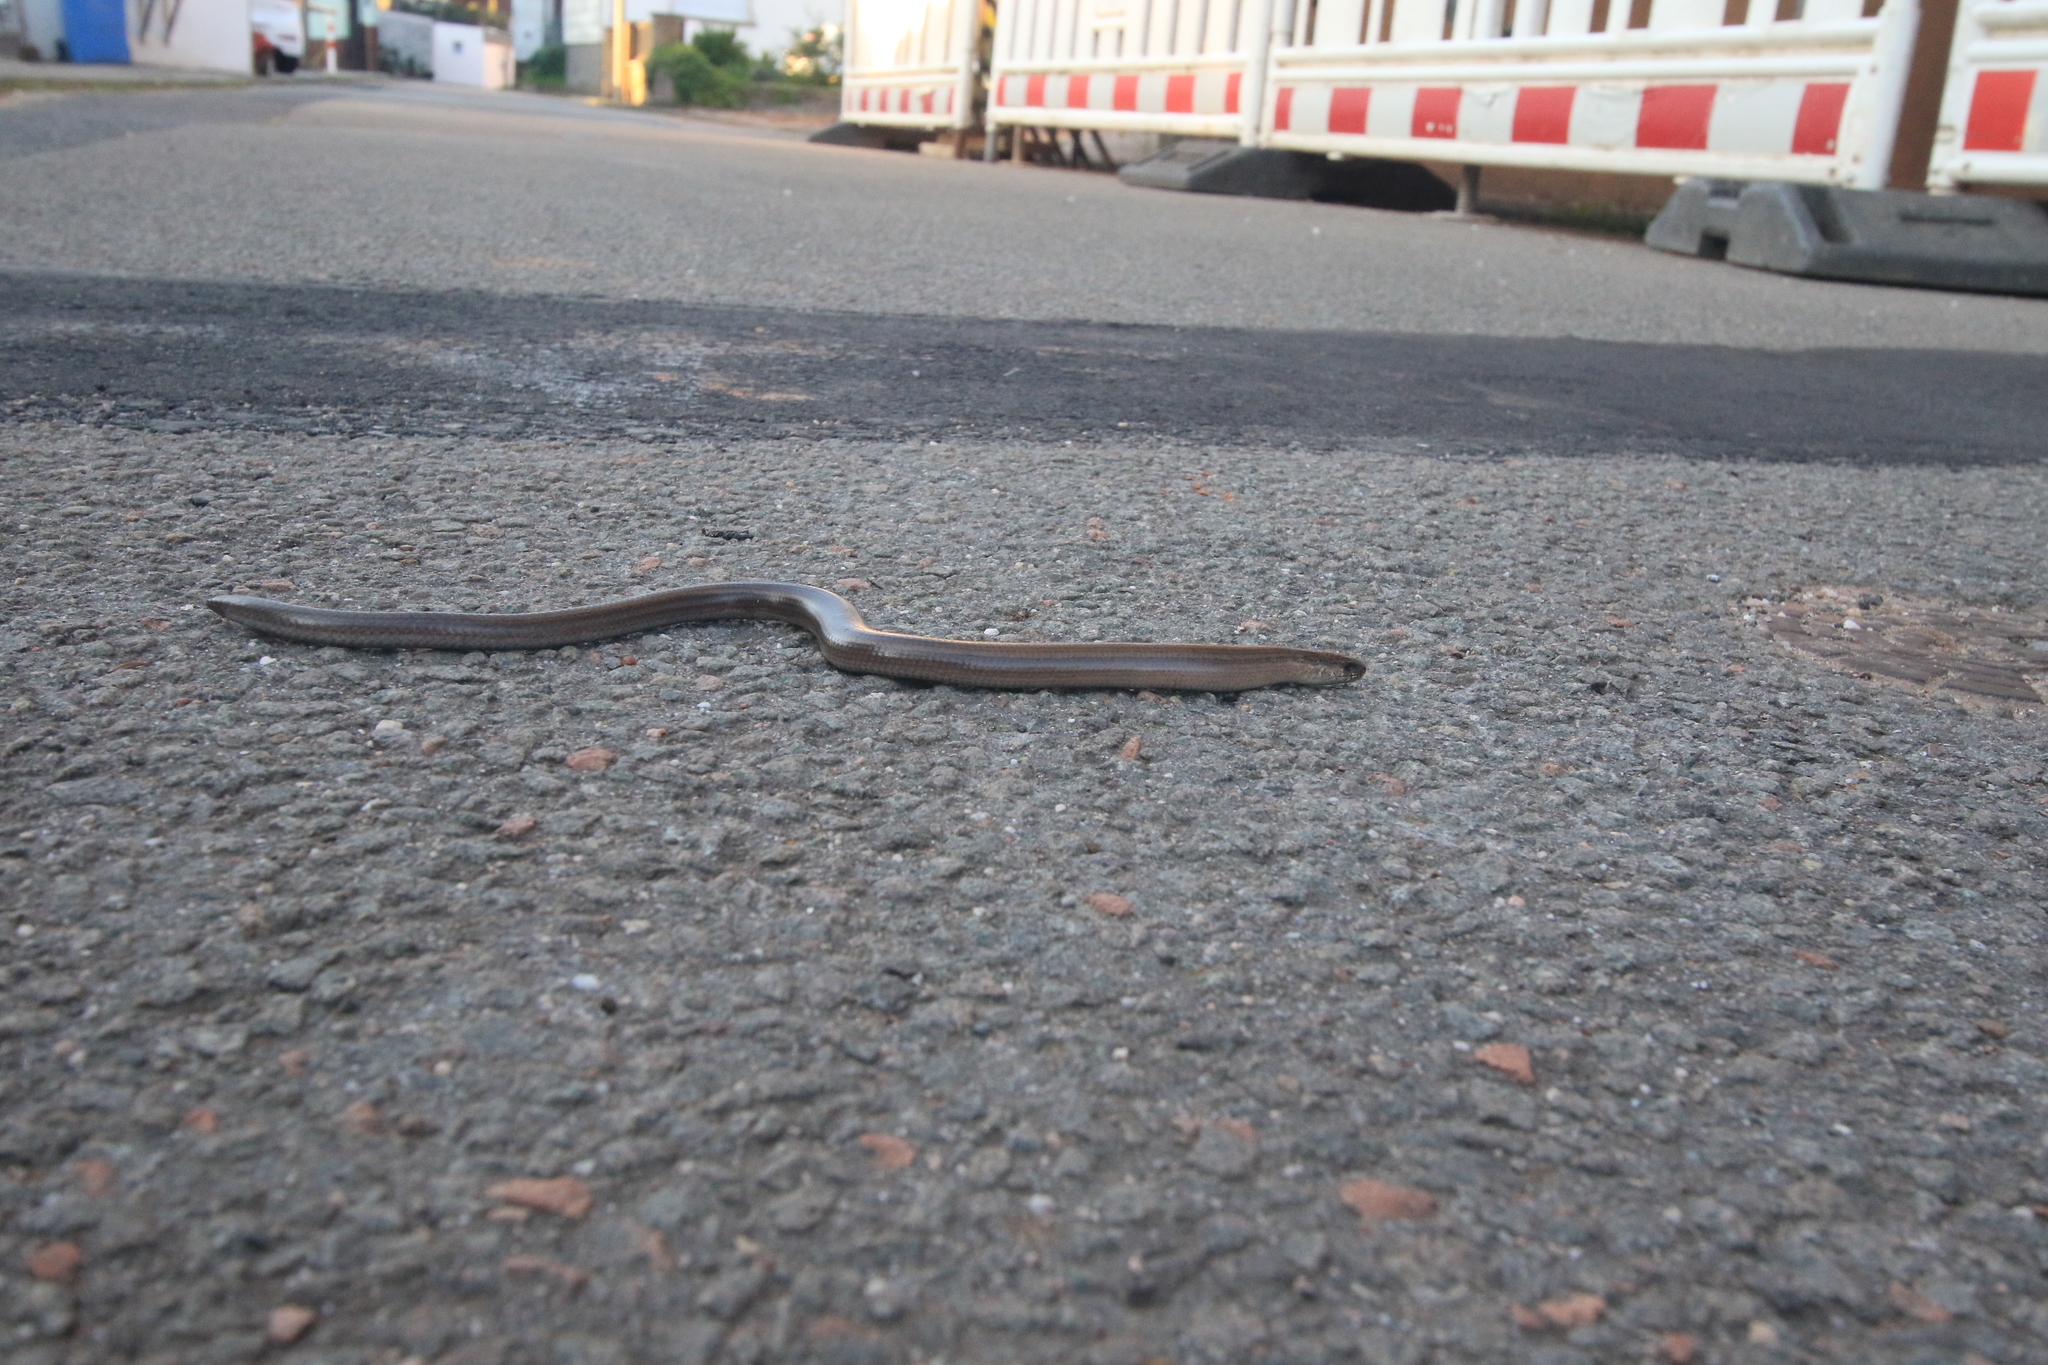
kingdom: Animalia
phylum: Chordata
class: Squamata
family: Anguidae
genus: Anguis
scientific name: Anguis fragilis
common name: Slow worm
